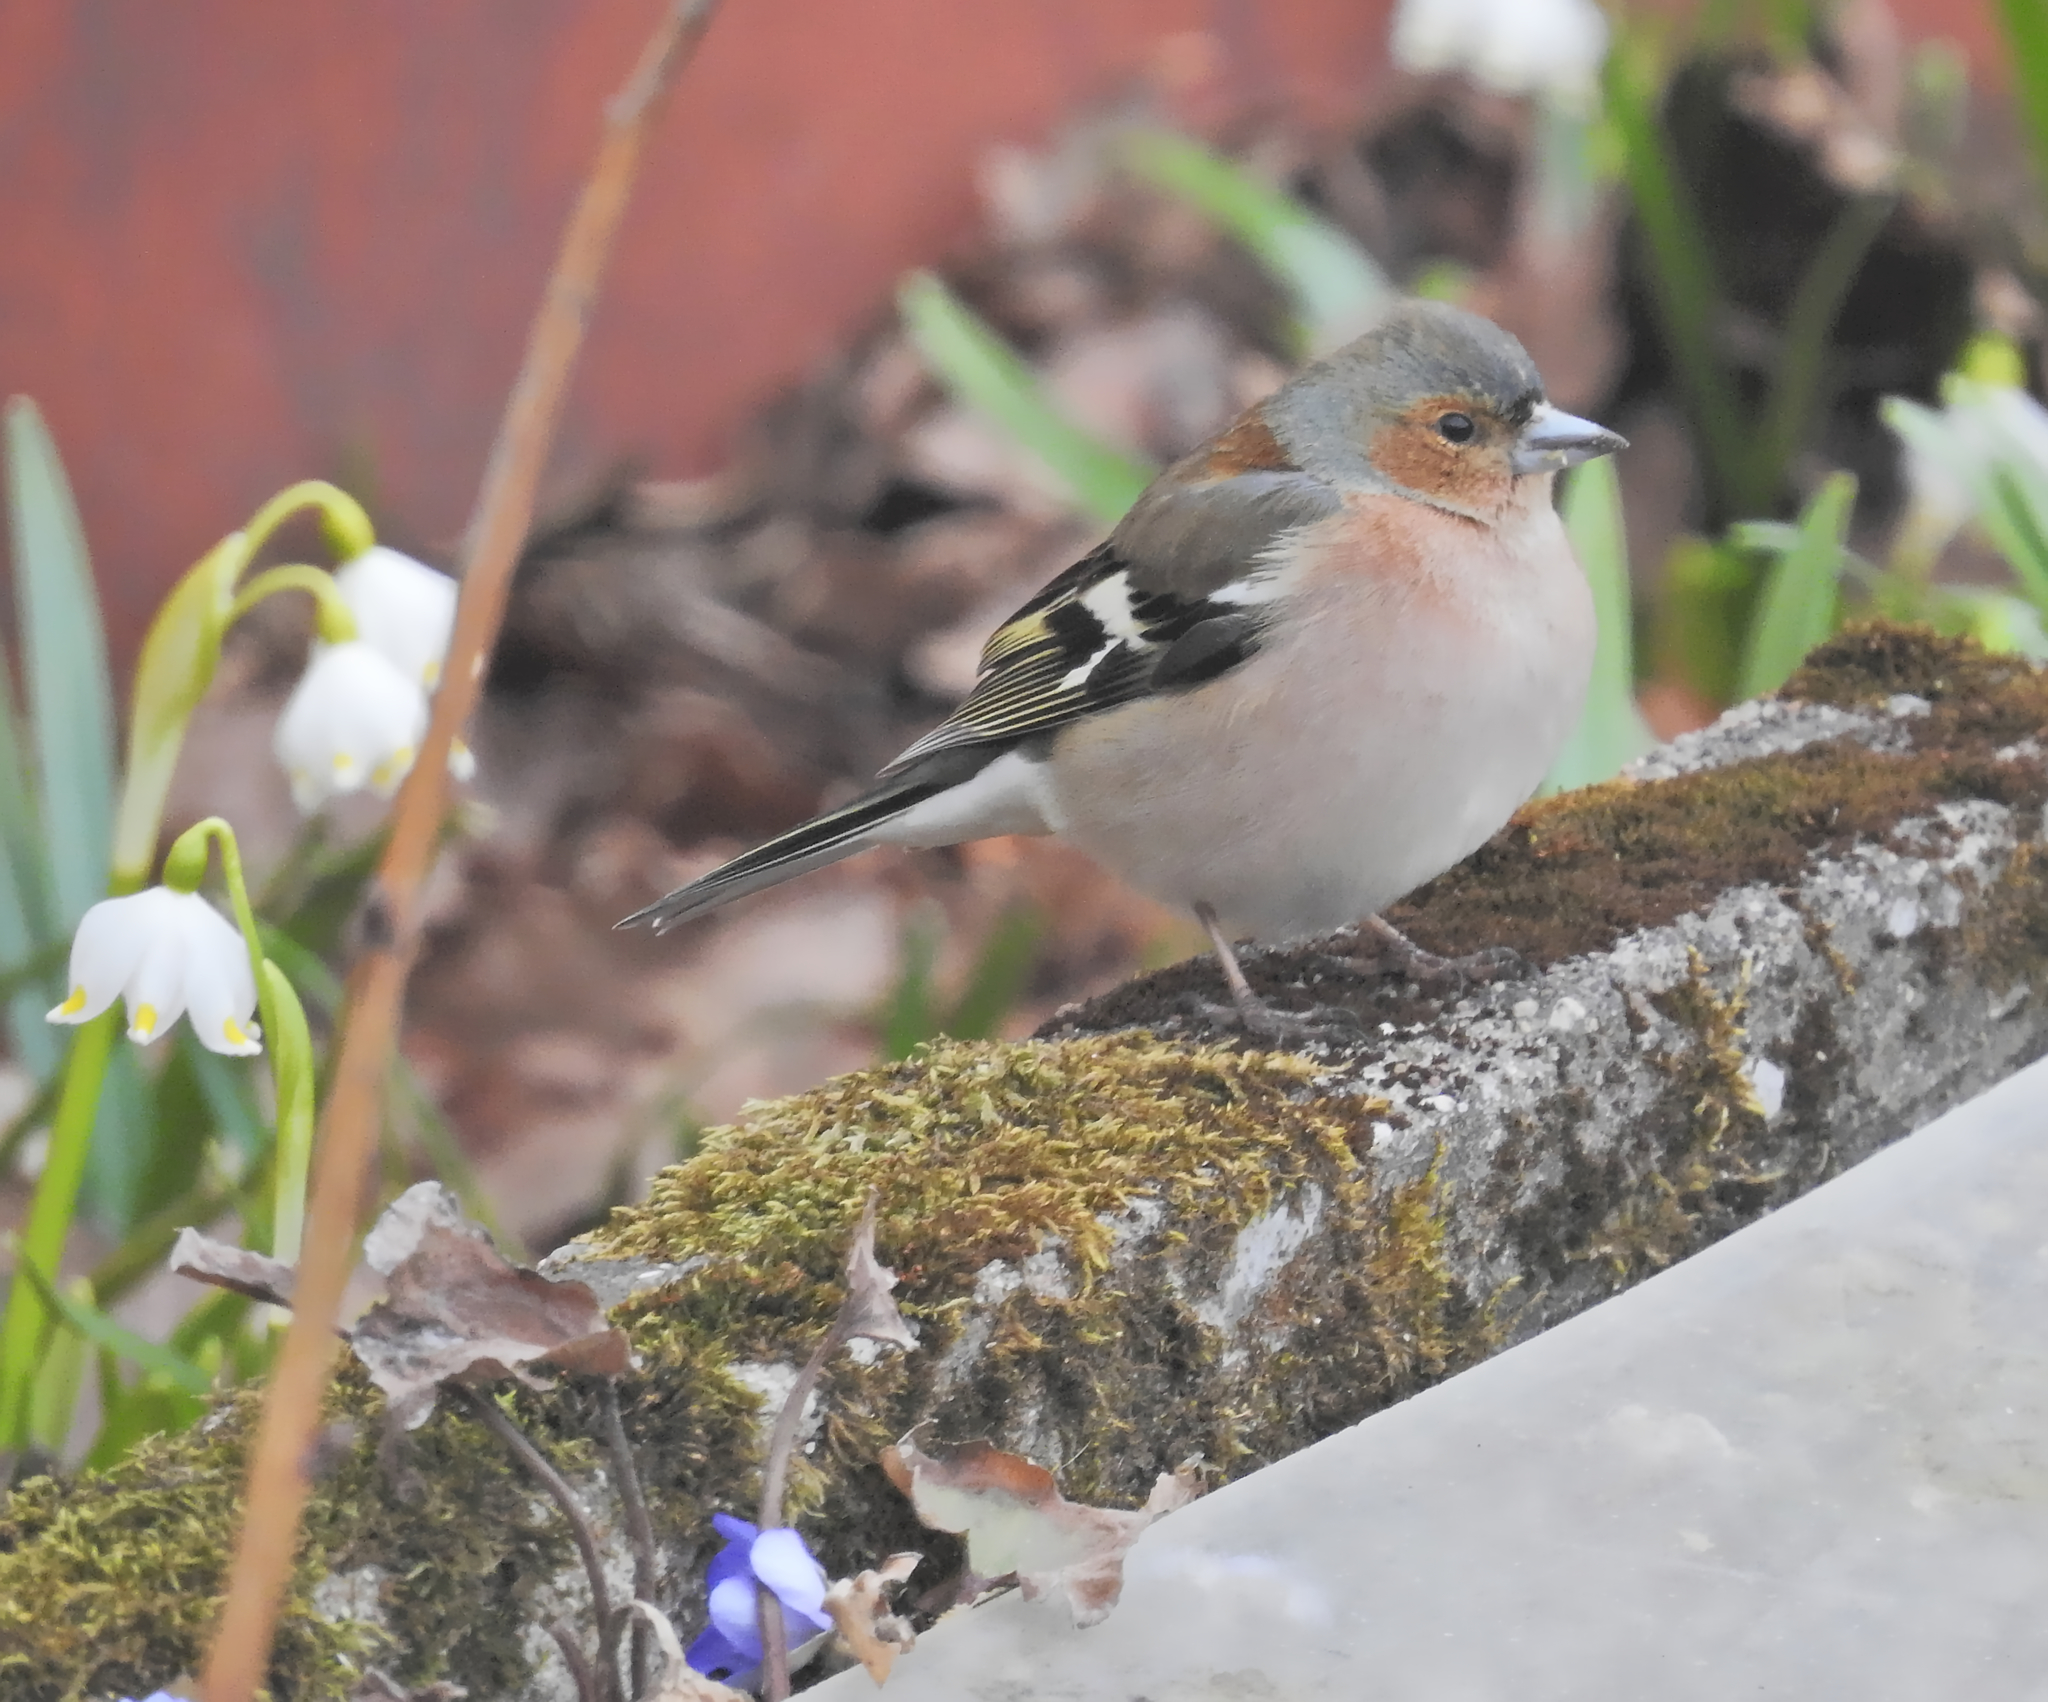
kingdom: Animalia
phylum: Chordata
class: Aves
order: Passeriformes
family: Fringillidae
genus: Fringilla
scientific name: Fringilla coelebs
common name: Common chaffinch
